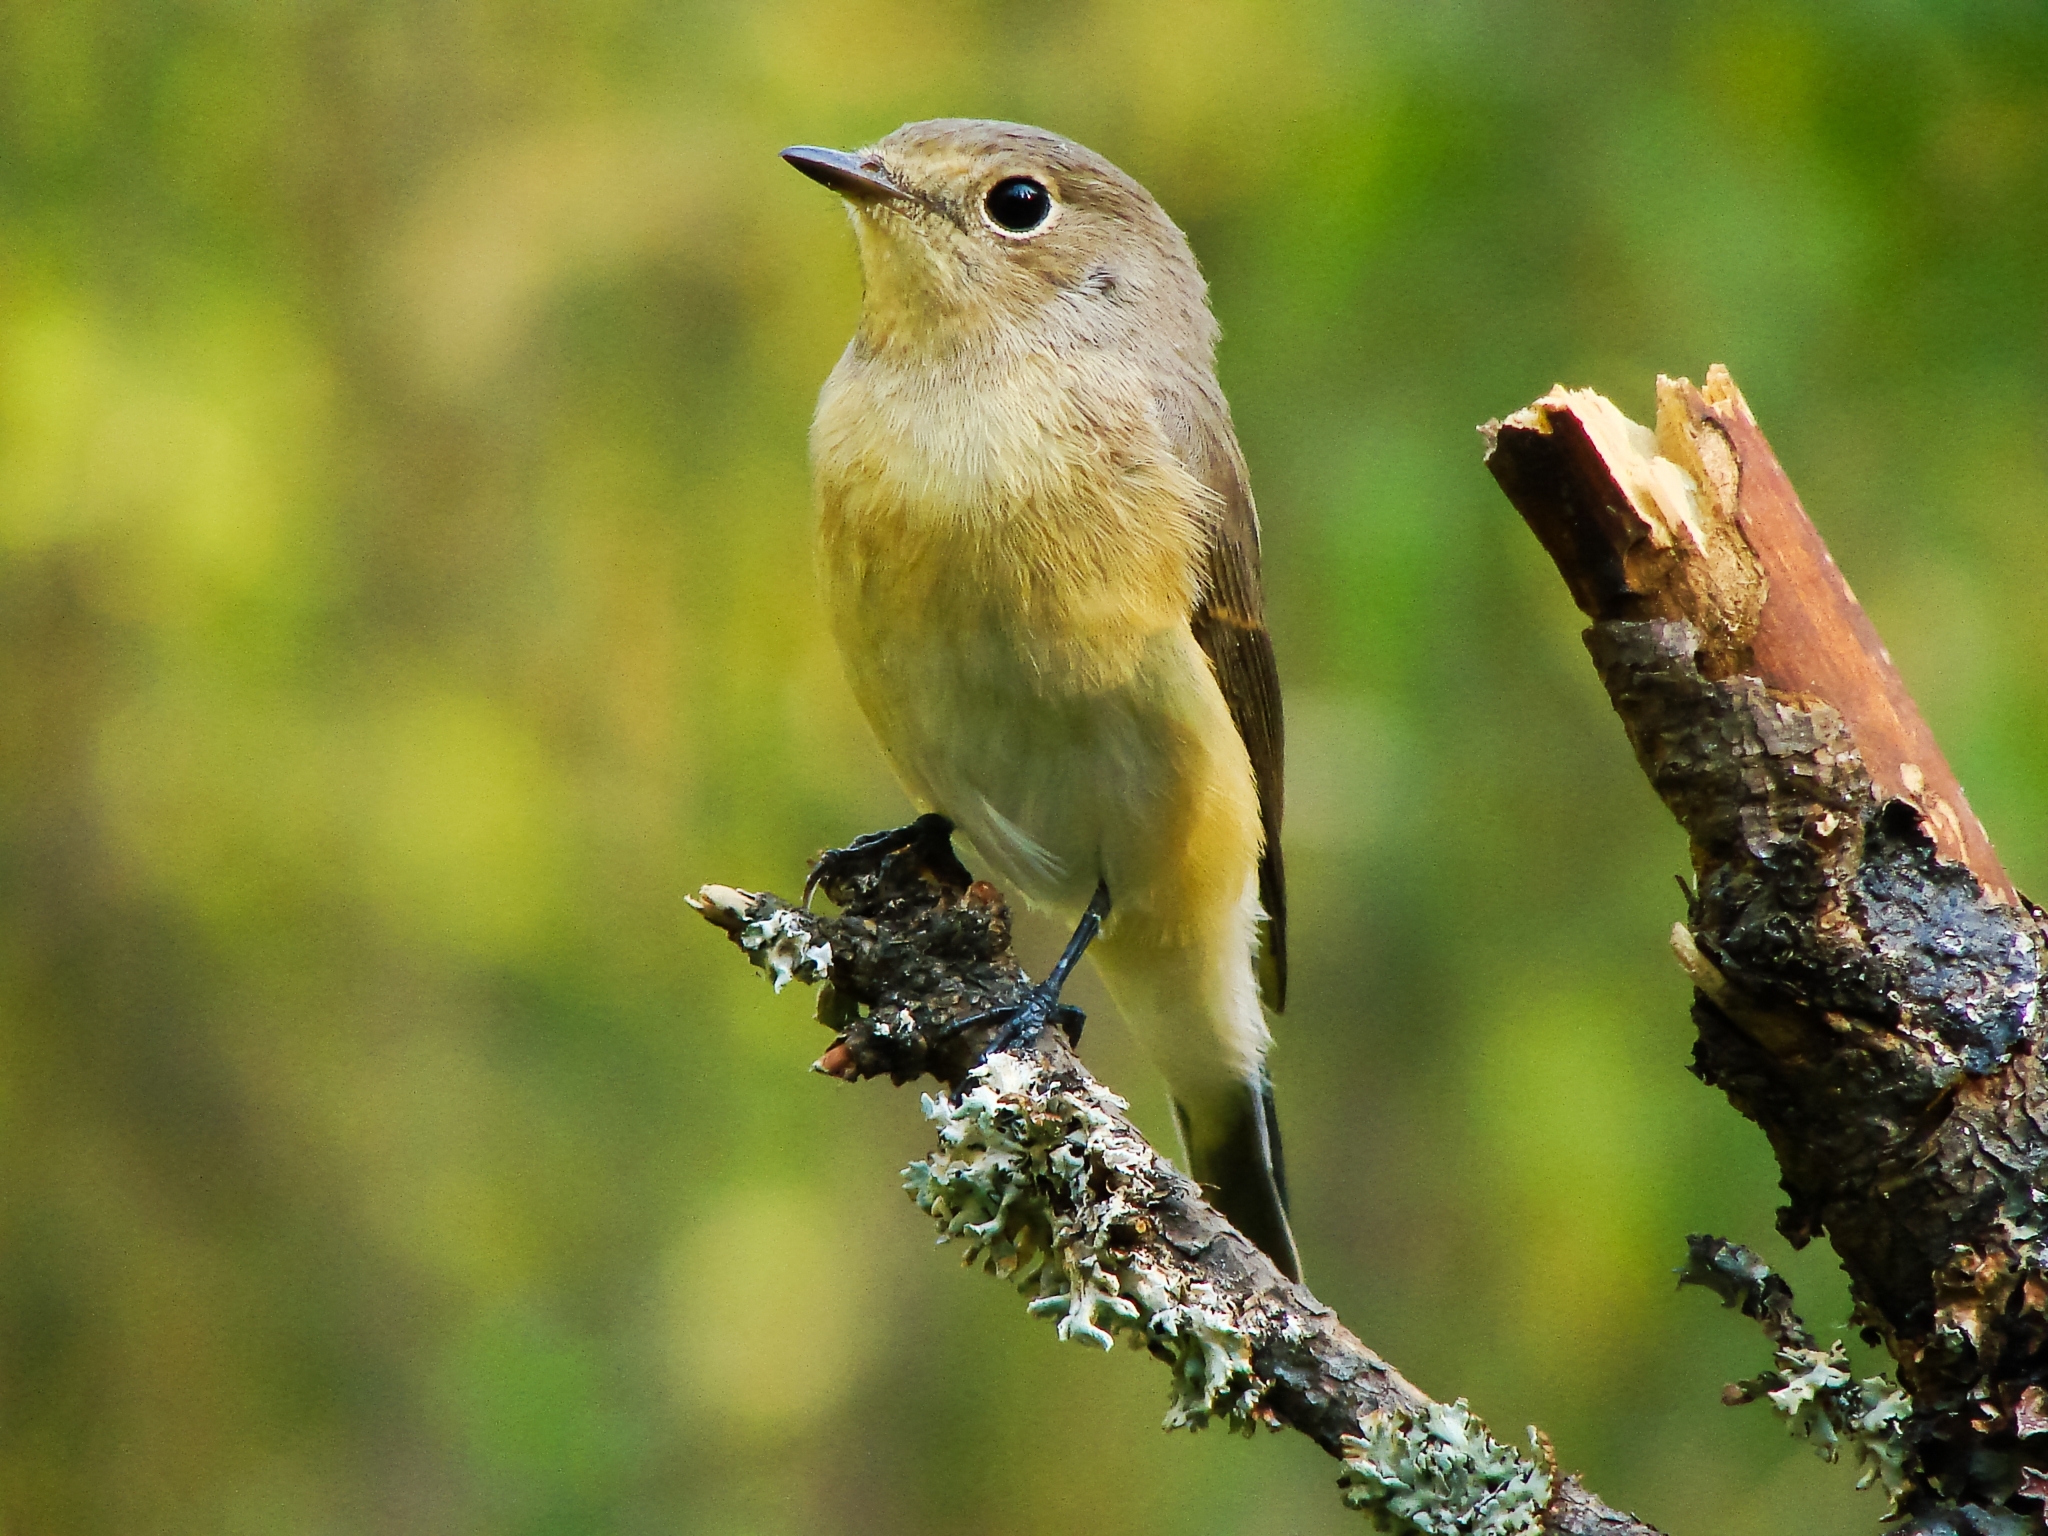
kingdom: Animalia
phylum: Chordata
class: Aves
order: Passeriformes
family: Muscicapidae
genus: Ficedula
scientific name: Ficedula parva
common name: Red-breasted flycatcher
